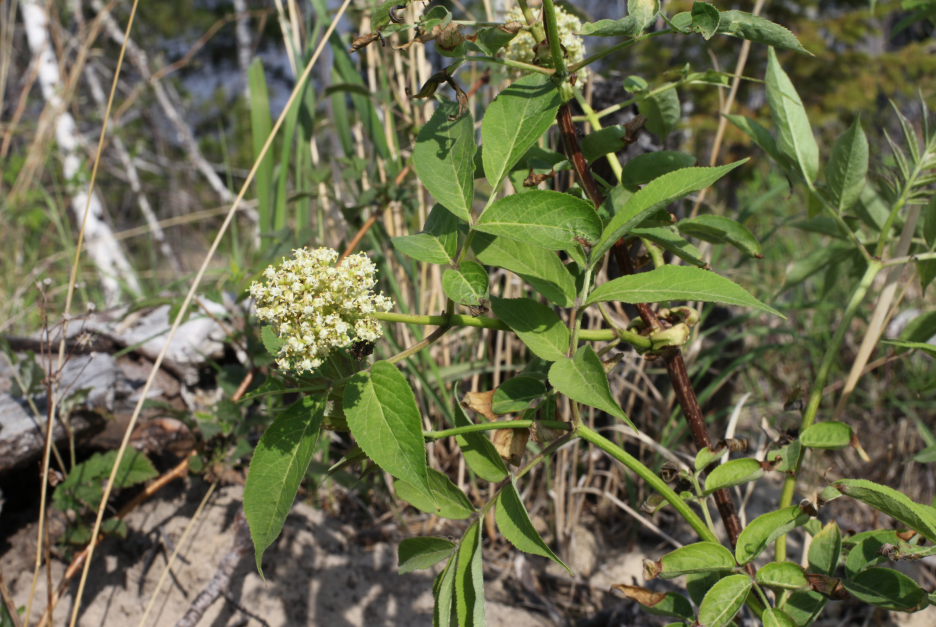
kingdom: Plantae
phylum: Tracheophyta
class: Magnoliopsida
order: Dipsacales
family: Viburnaceae
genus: Sambucus
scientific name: Sambucus sibirica
